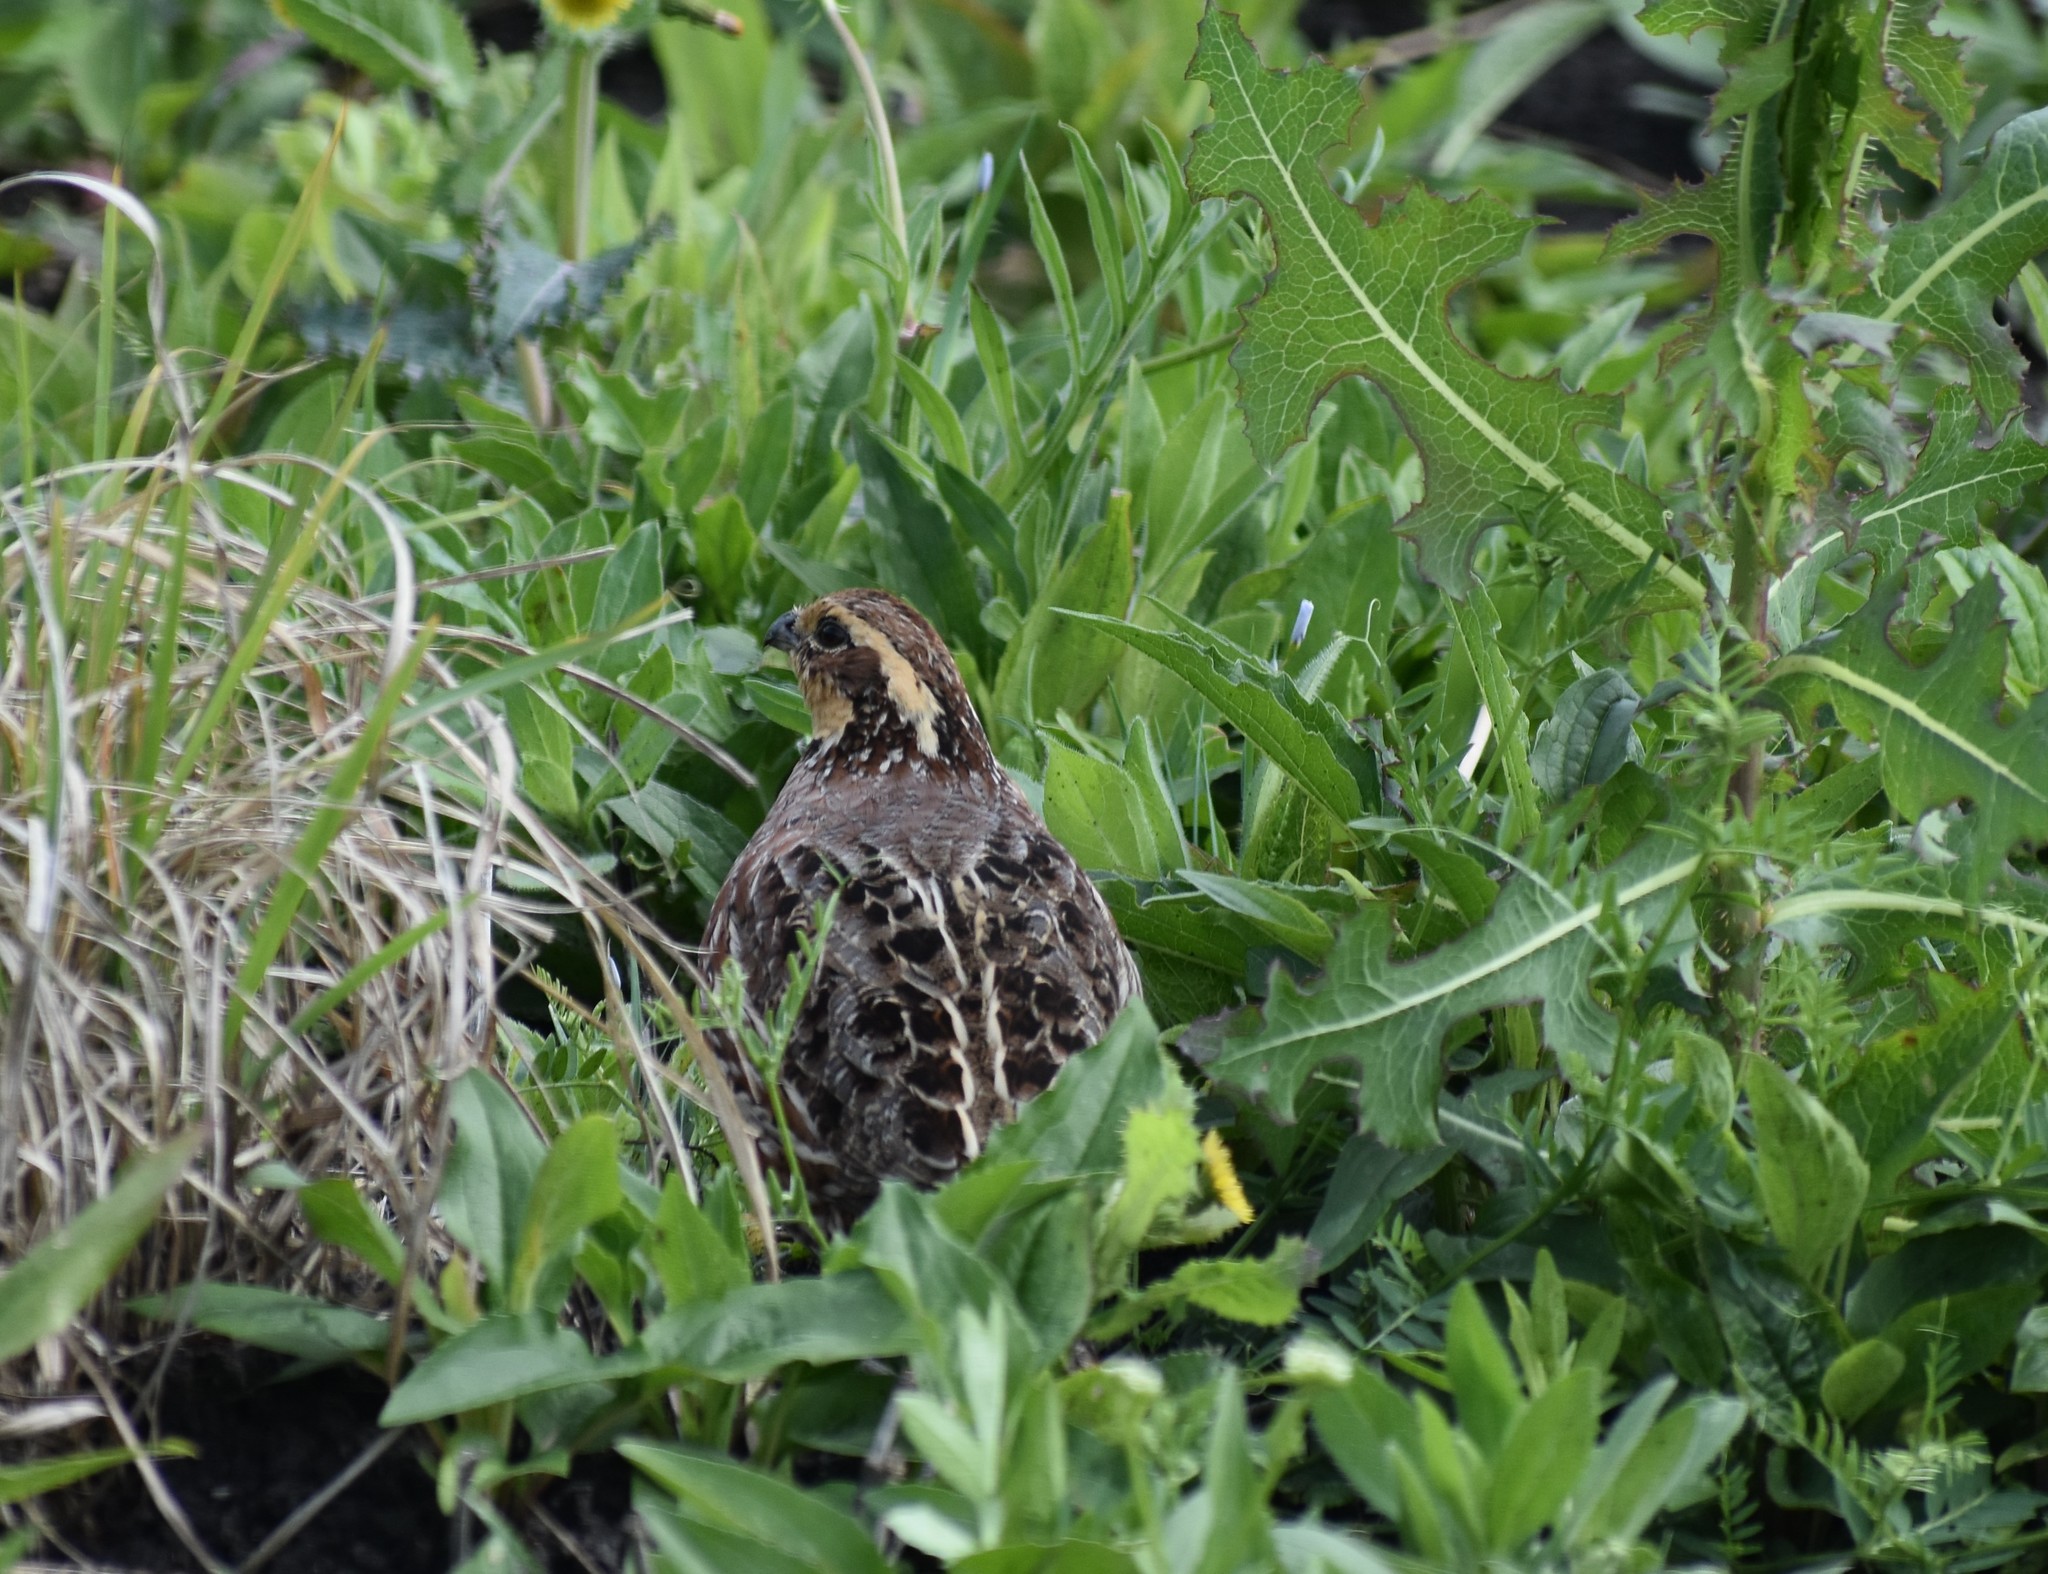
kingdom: Animalia
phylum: Chordata
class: Aves
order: Galliformes
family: Odontophoridae
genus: Colinus
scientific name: Colinus virginianus
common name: Northern bobwhite
